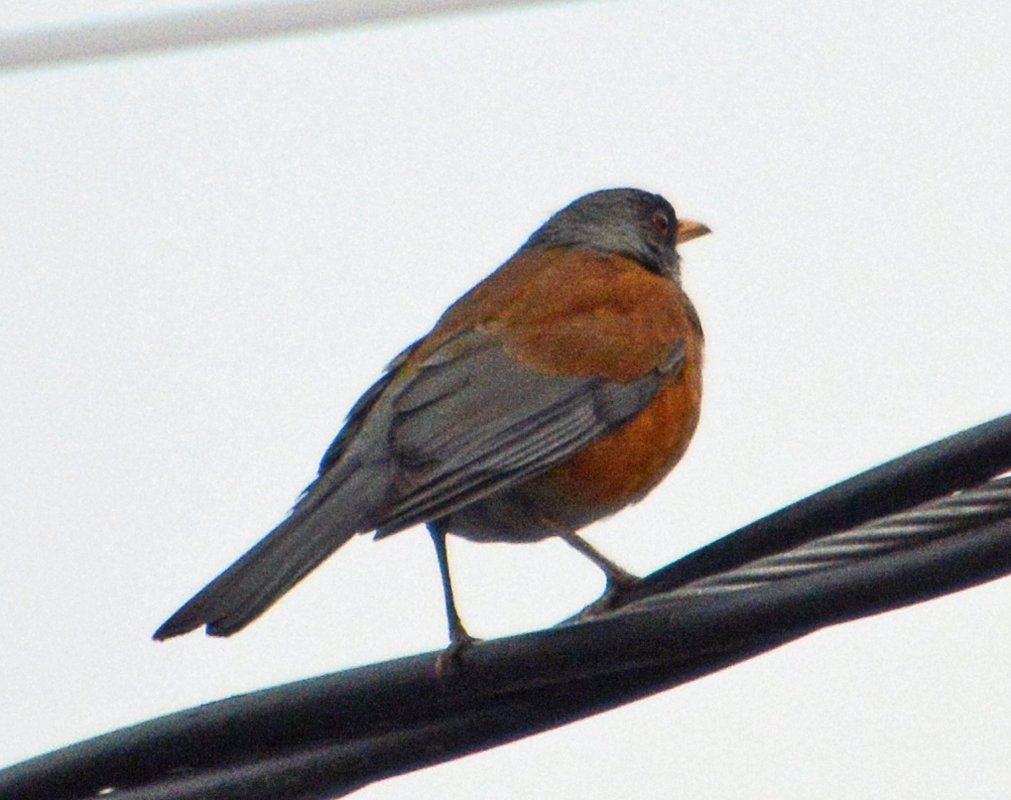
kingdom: Animalia
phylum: Chordata
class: Aves
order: Passeriformes
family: Turdidae
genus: Turdus
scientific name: Turdus rufopalliatus
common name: Rufous-backed robin
